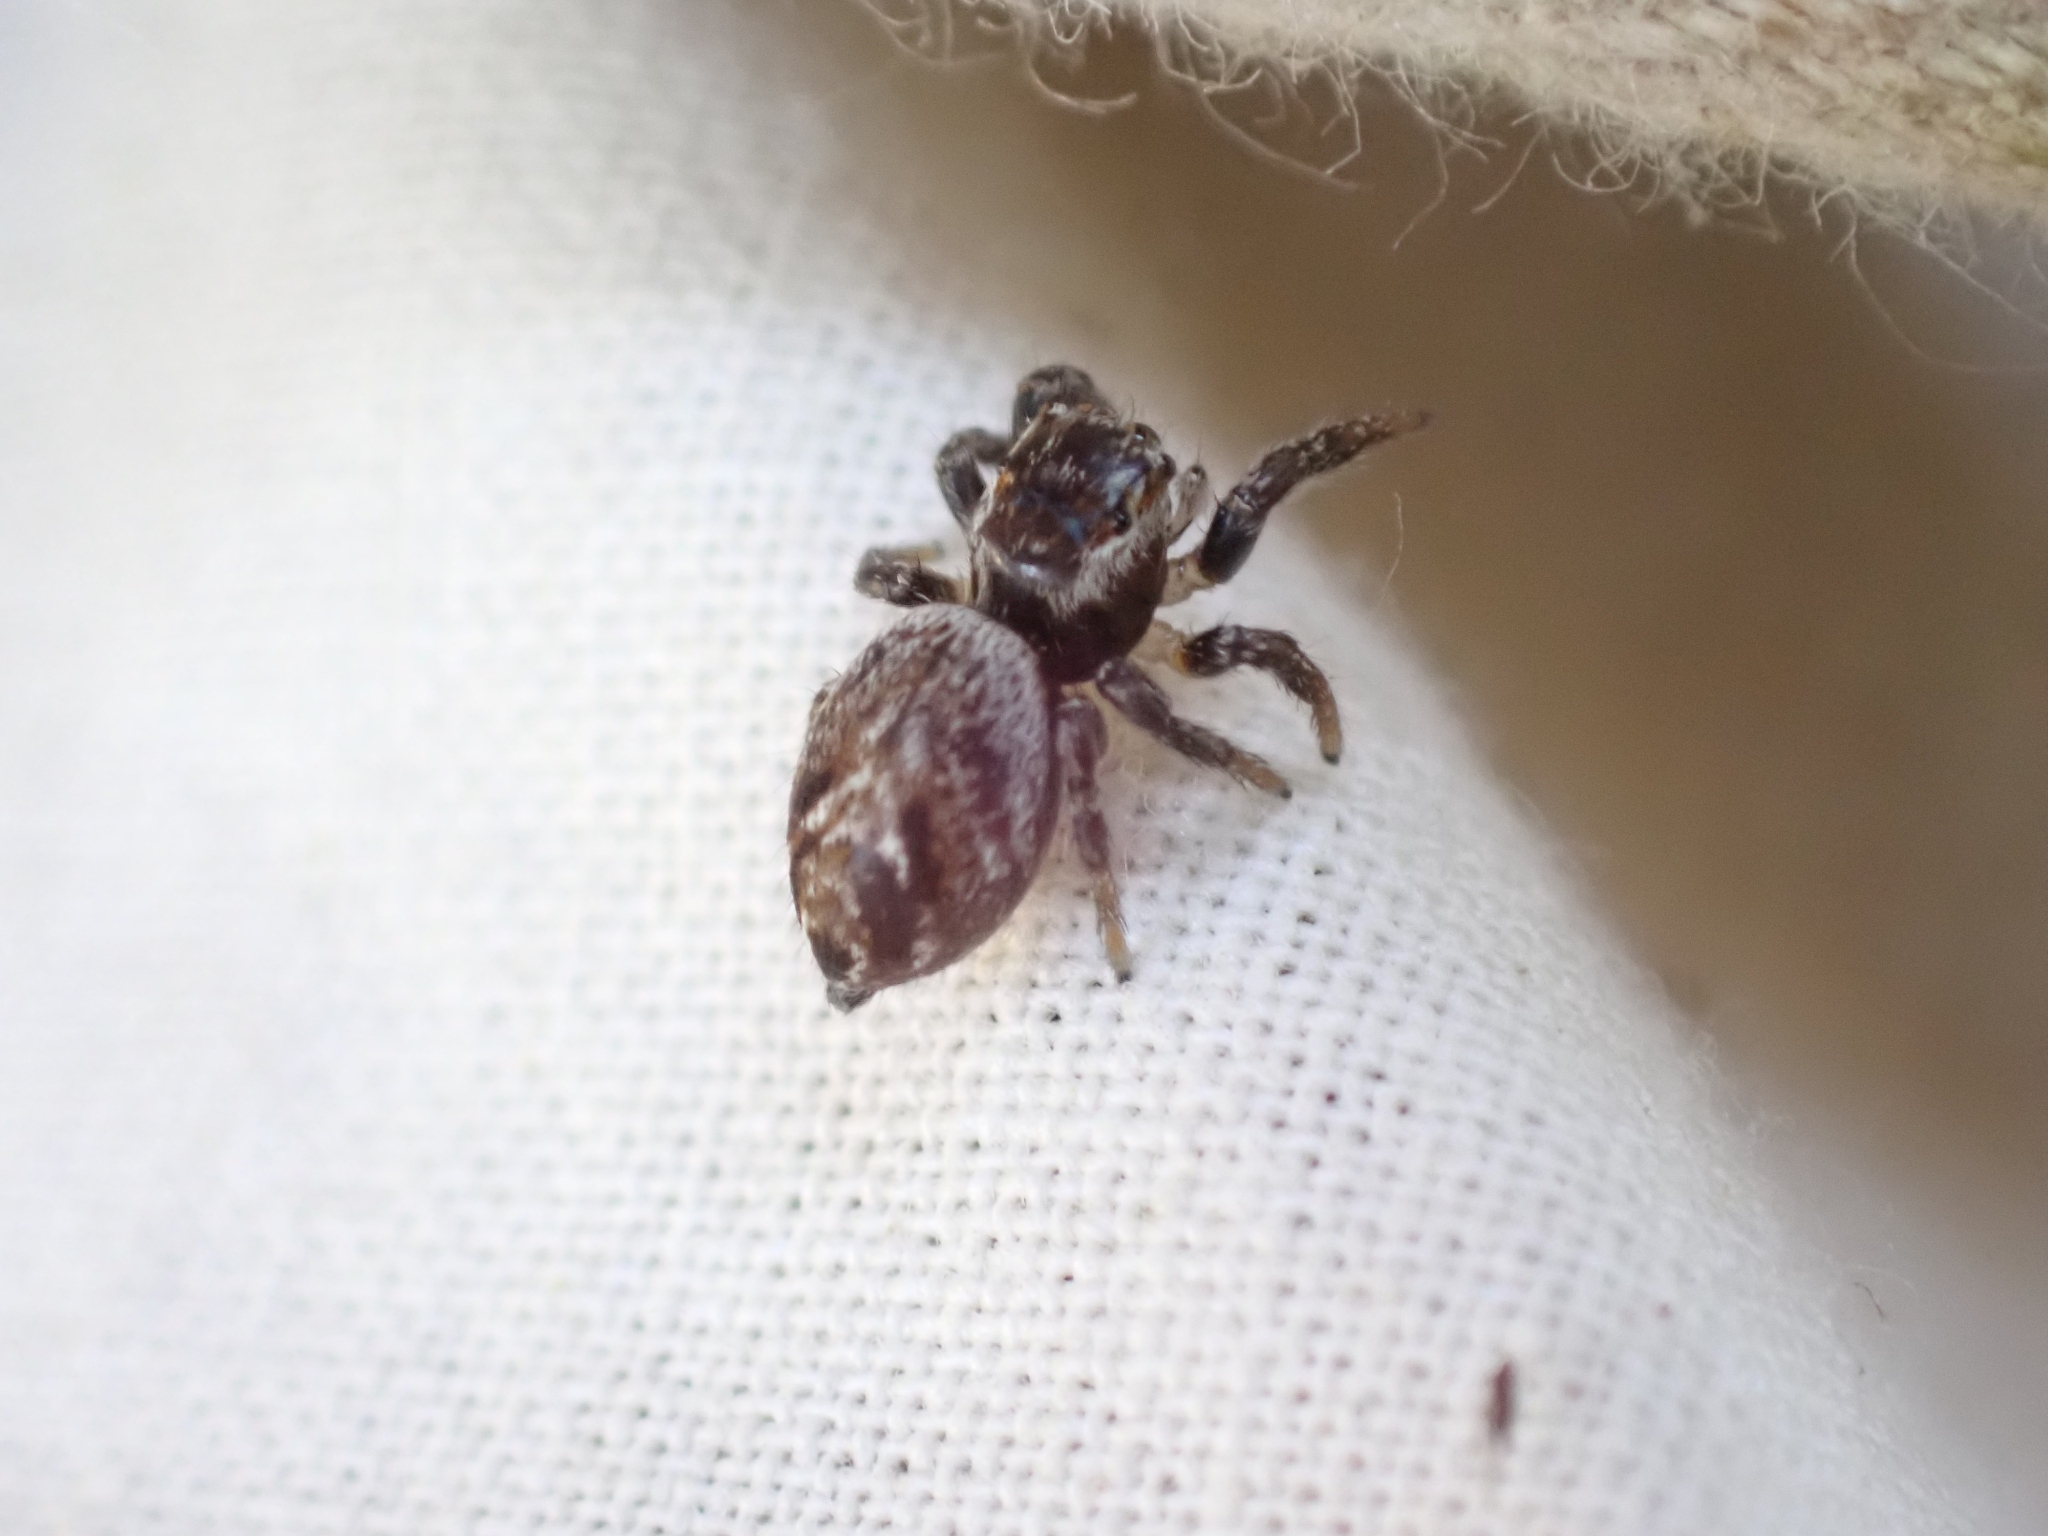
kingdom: Animalia
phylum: Arthropoda
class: Arachnida
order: Araneae
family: Salticidae
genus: Evarcha
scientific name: Evarcha proszynskii
